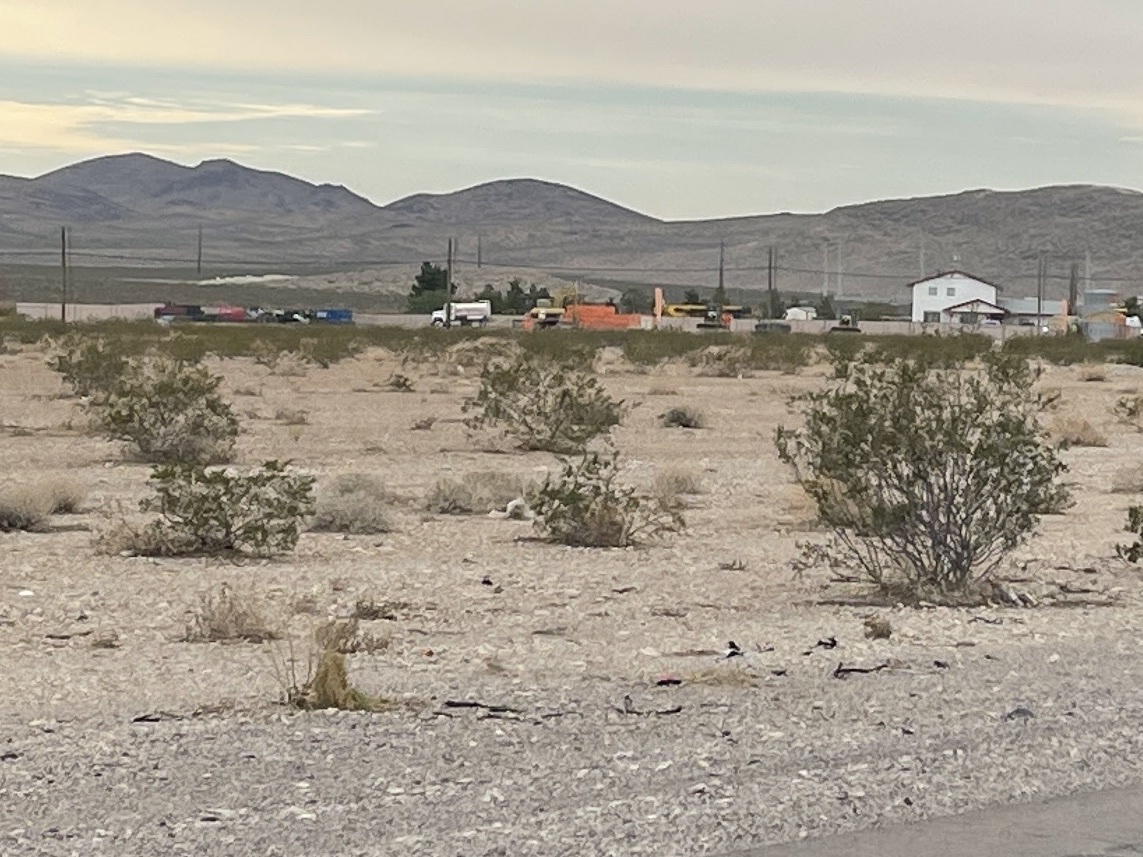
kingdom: Plantae
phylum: Tracheophyta
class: Magnoliopsida
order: Zygophyllales
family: Zygophyllaceae
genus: Larrea
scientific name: Larrea tridentata
